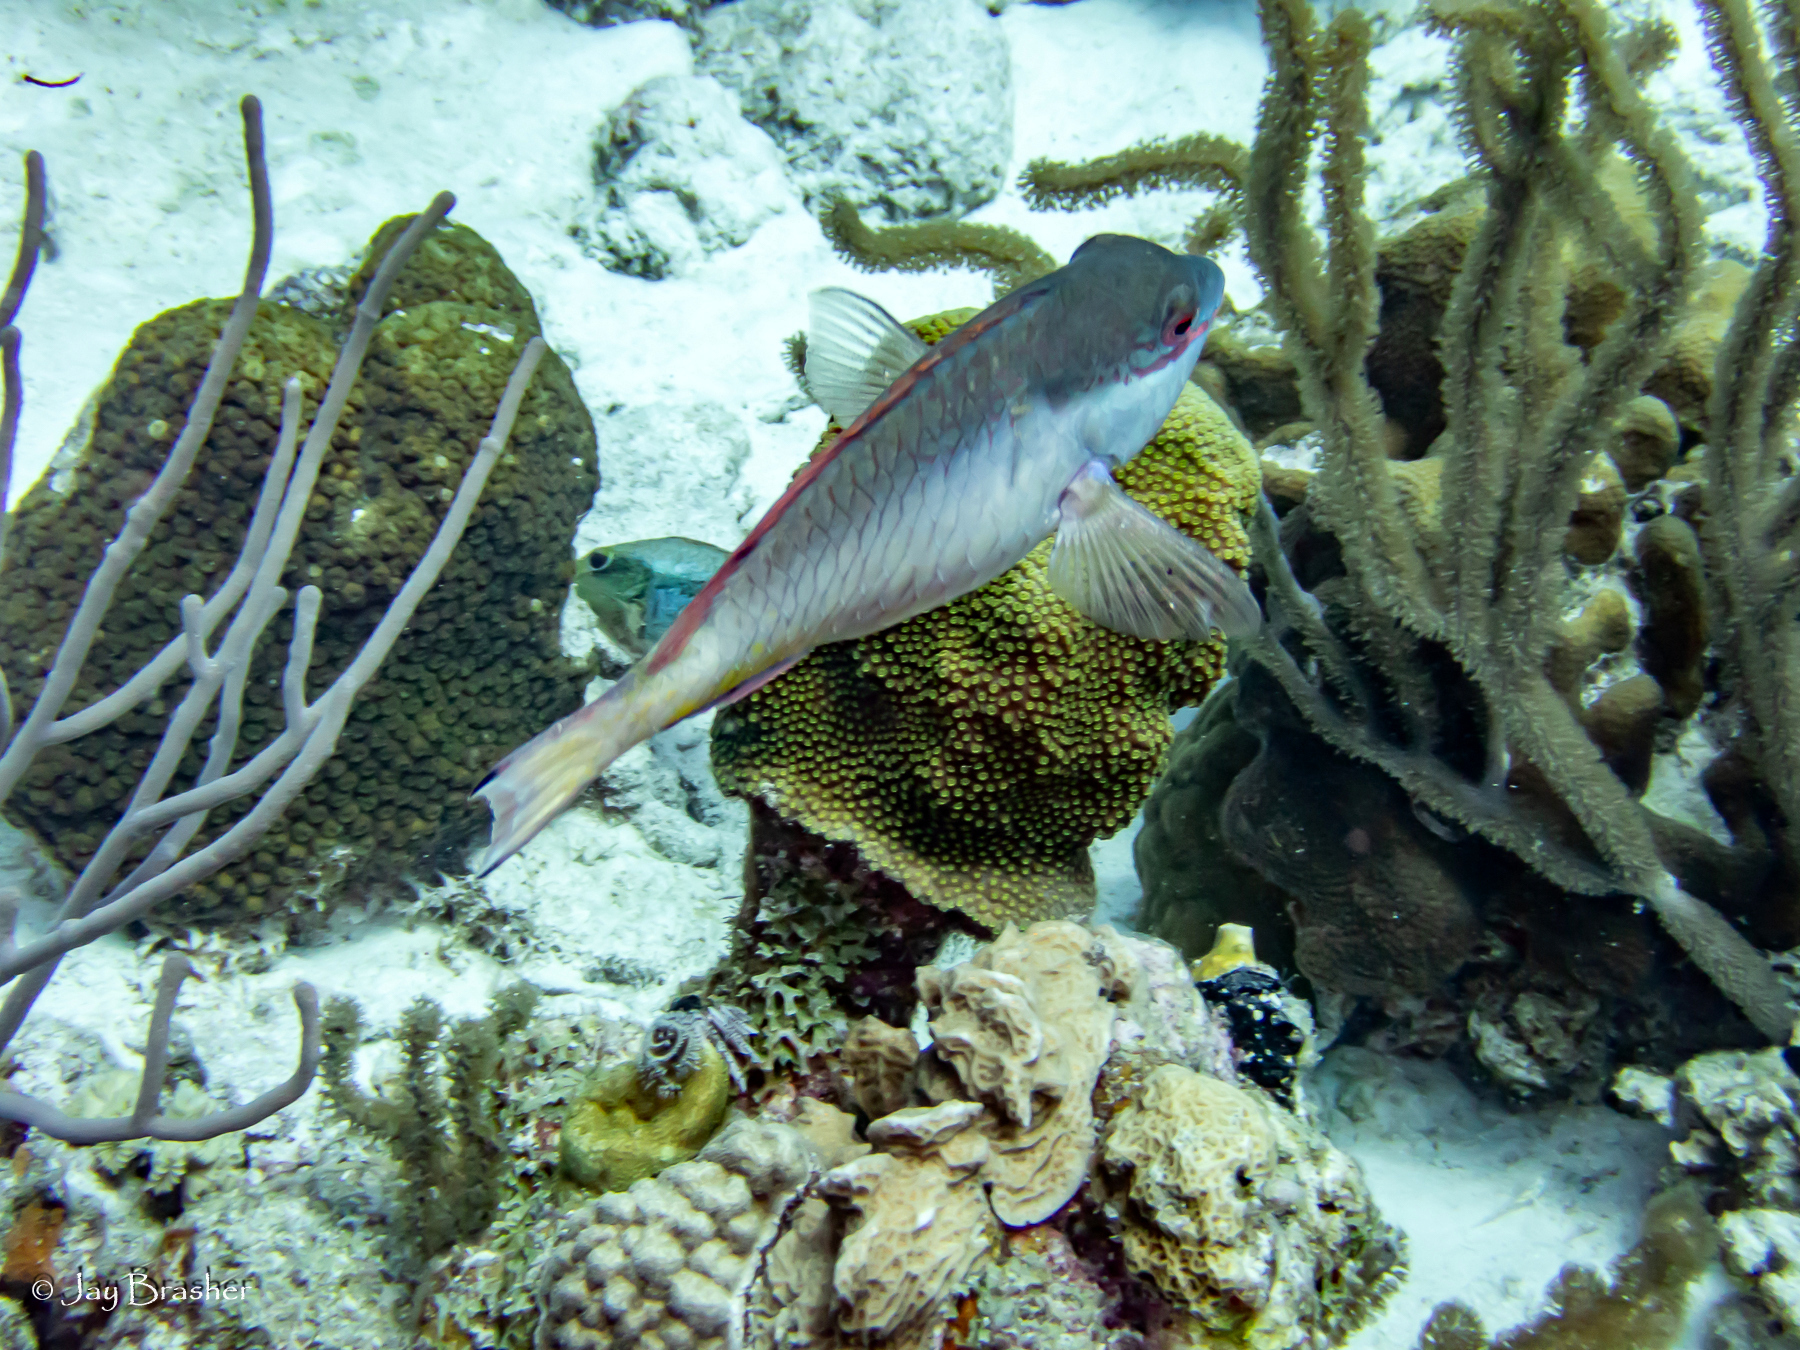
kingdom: Animalia
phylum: Chordata
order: Perciformes
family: Scaridae
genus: Sparisoma
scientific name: Sparisoma aurofrenatum
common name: Redband parrotfish
